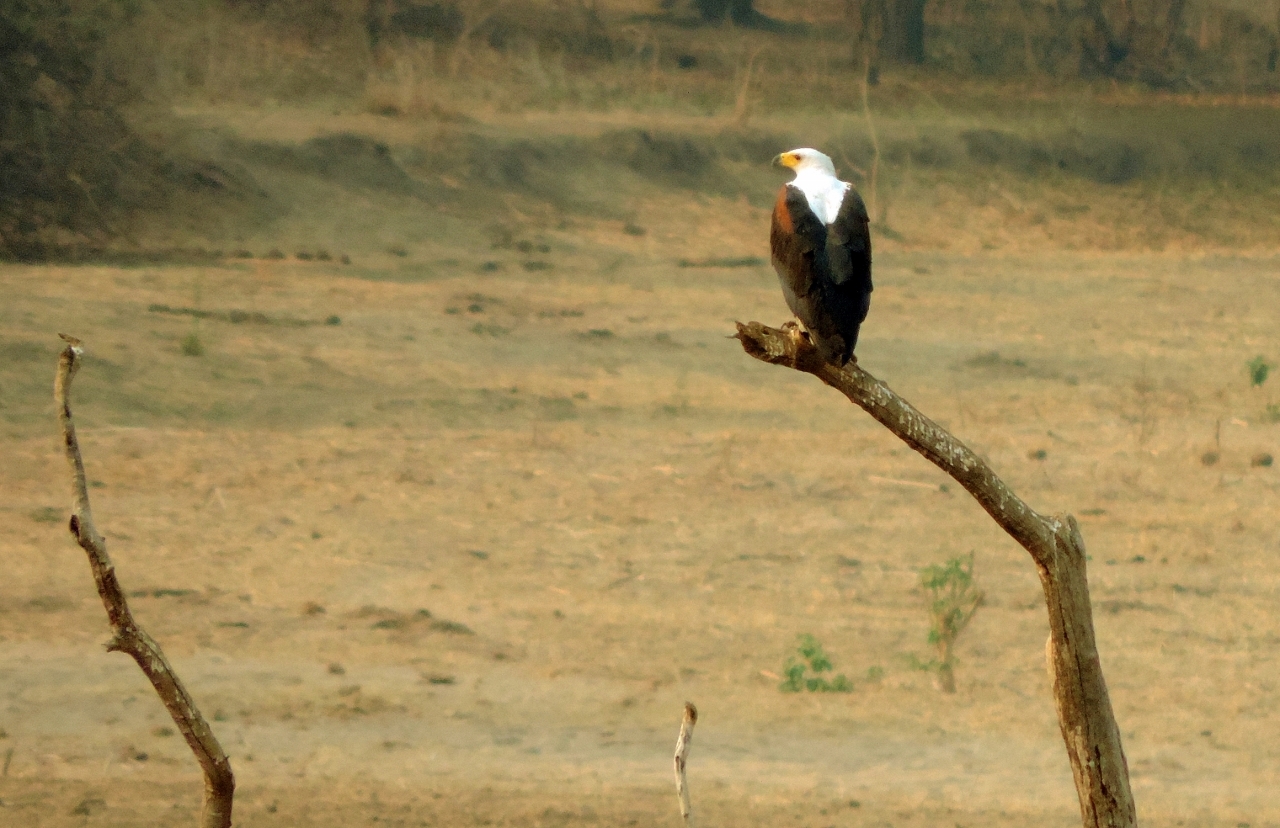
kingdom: Animalia
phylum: Chordata
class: Aves
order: Accipitriformes
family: Accipitridae
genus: Haliaeetus
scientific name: Haliaeetus vocifer
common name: African fish eagle
